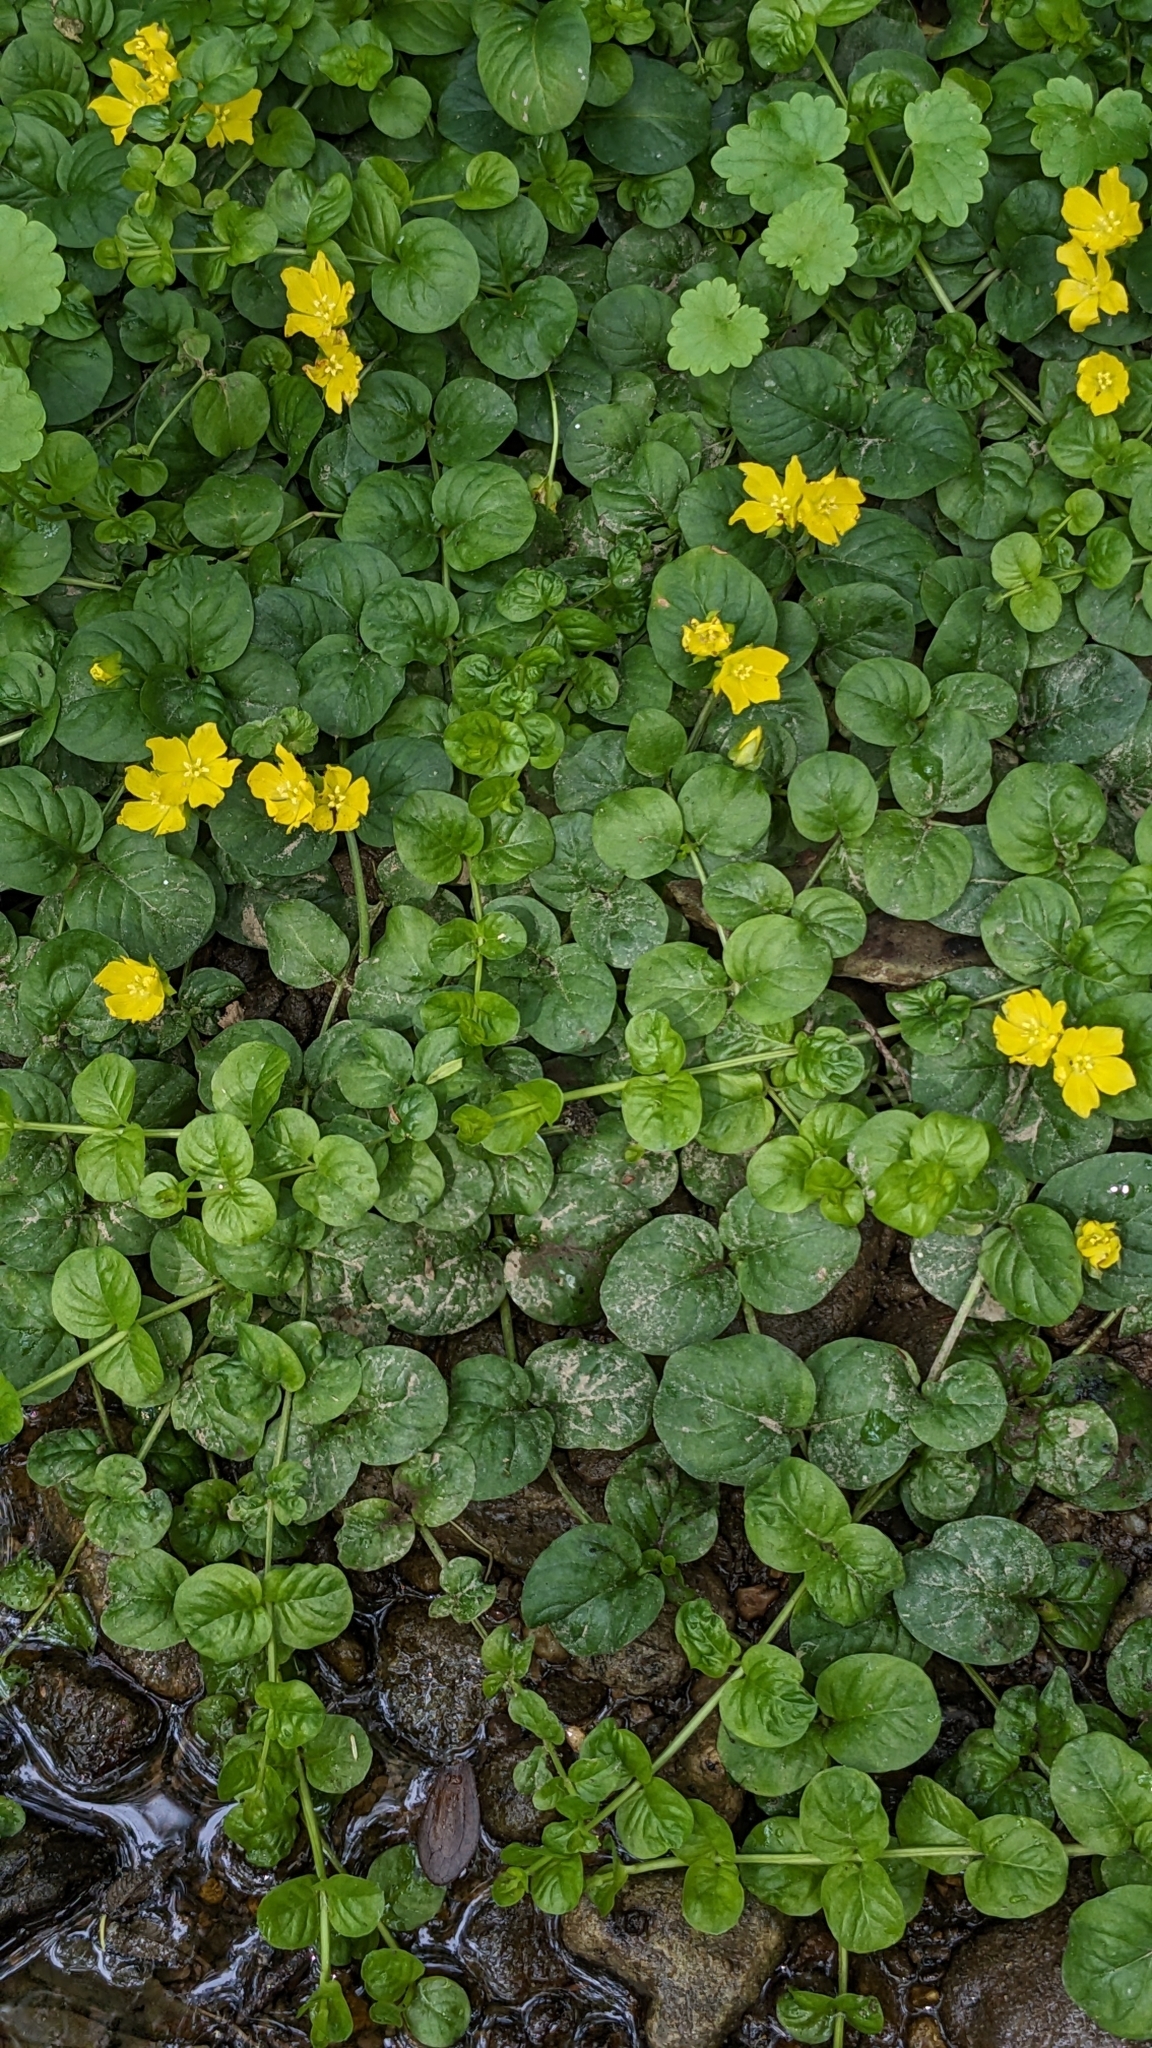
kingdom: Plantae
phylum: Tracheophyta
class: Magnoliopsida
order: Ericales
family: Primulaceae
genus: Lysimachia
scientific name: Lysimachia nummularia
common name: Moneywort
